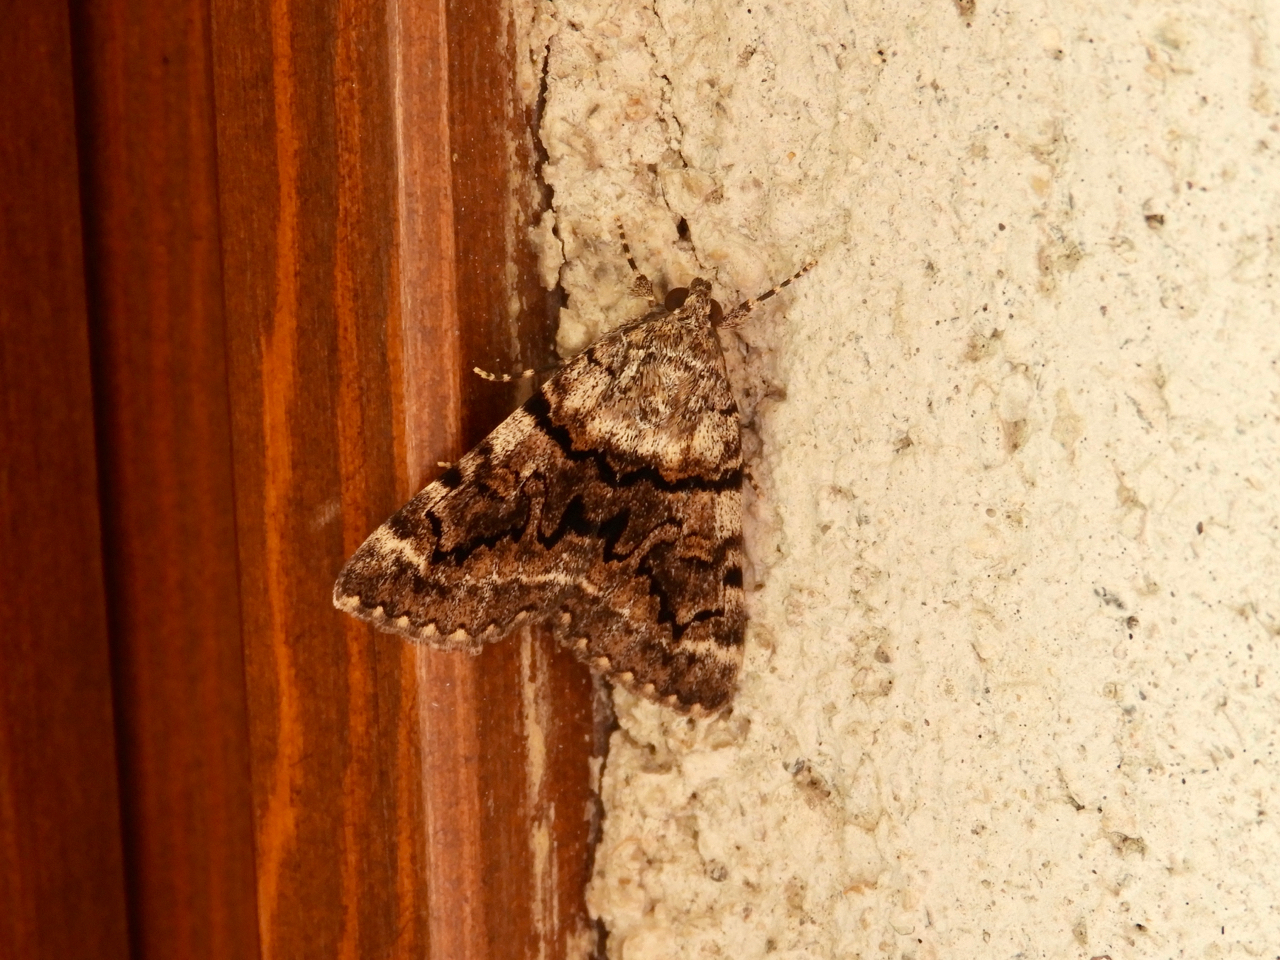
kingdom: Animalia
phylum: Arthropoda
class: Insecta
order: Lepidoptera
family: Erebidae
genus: Catocala
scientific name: Catocala nymphagoga
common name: Oak yellow underwing
